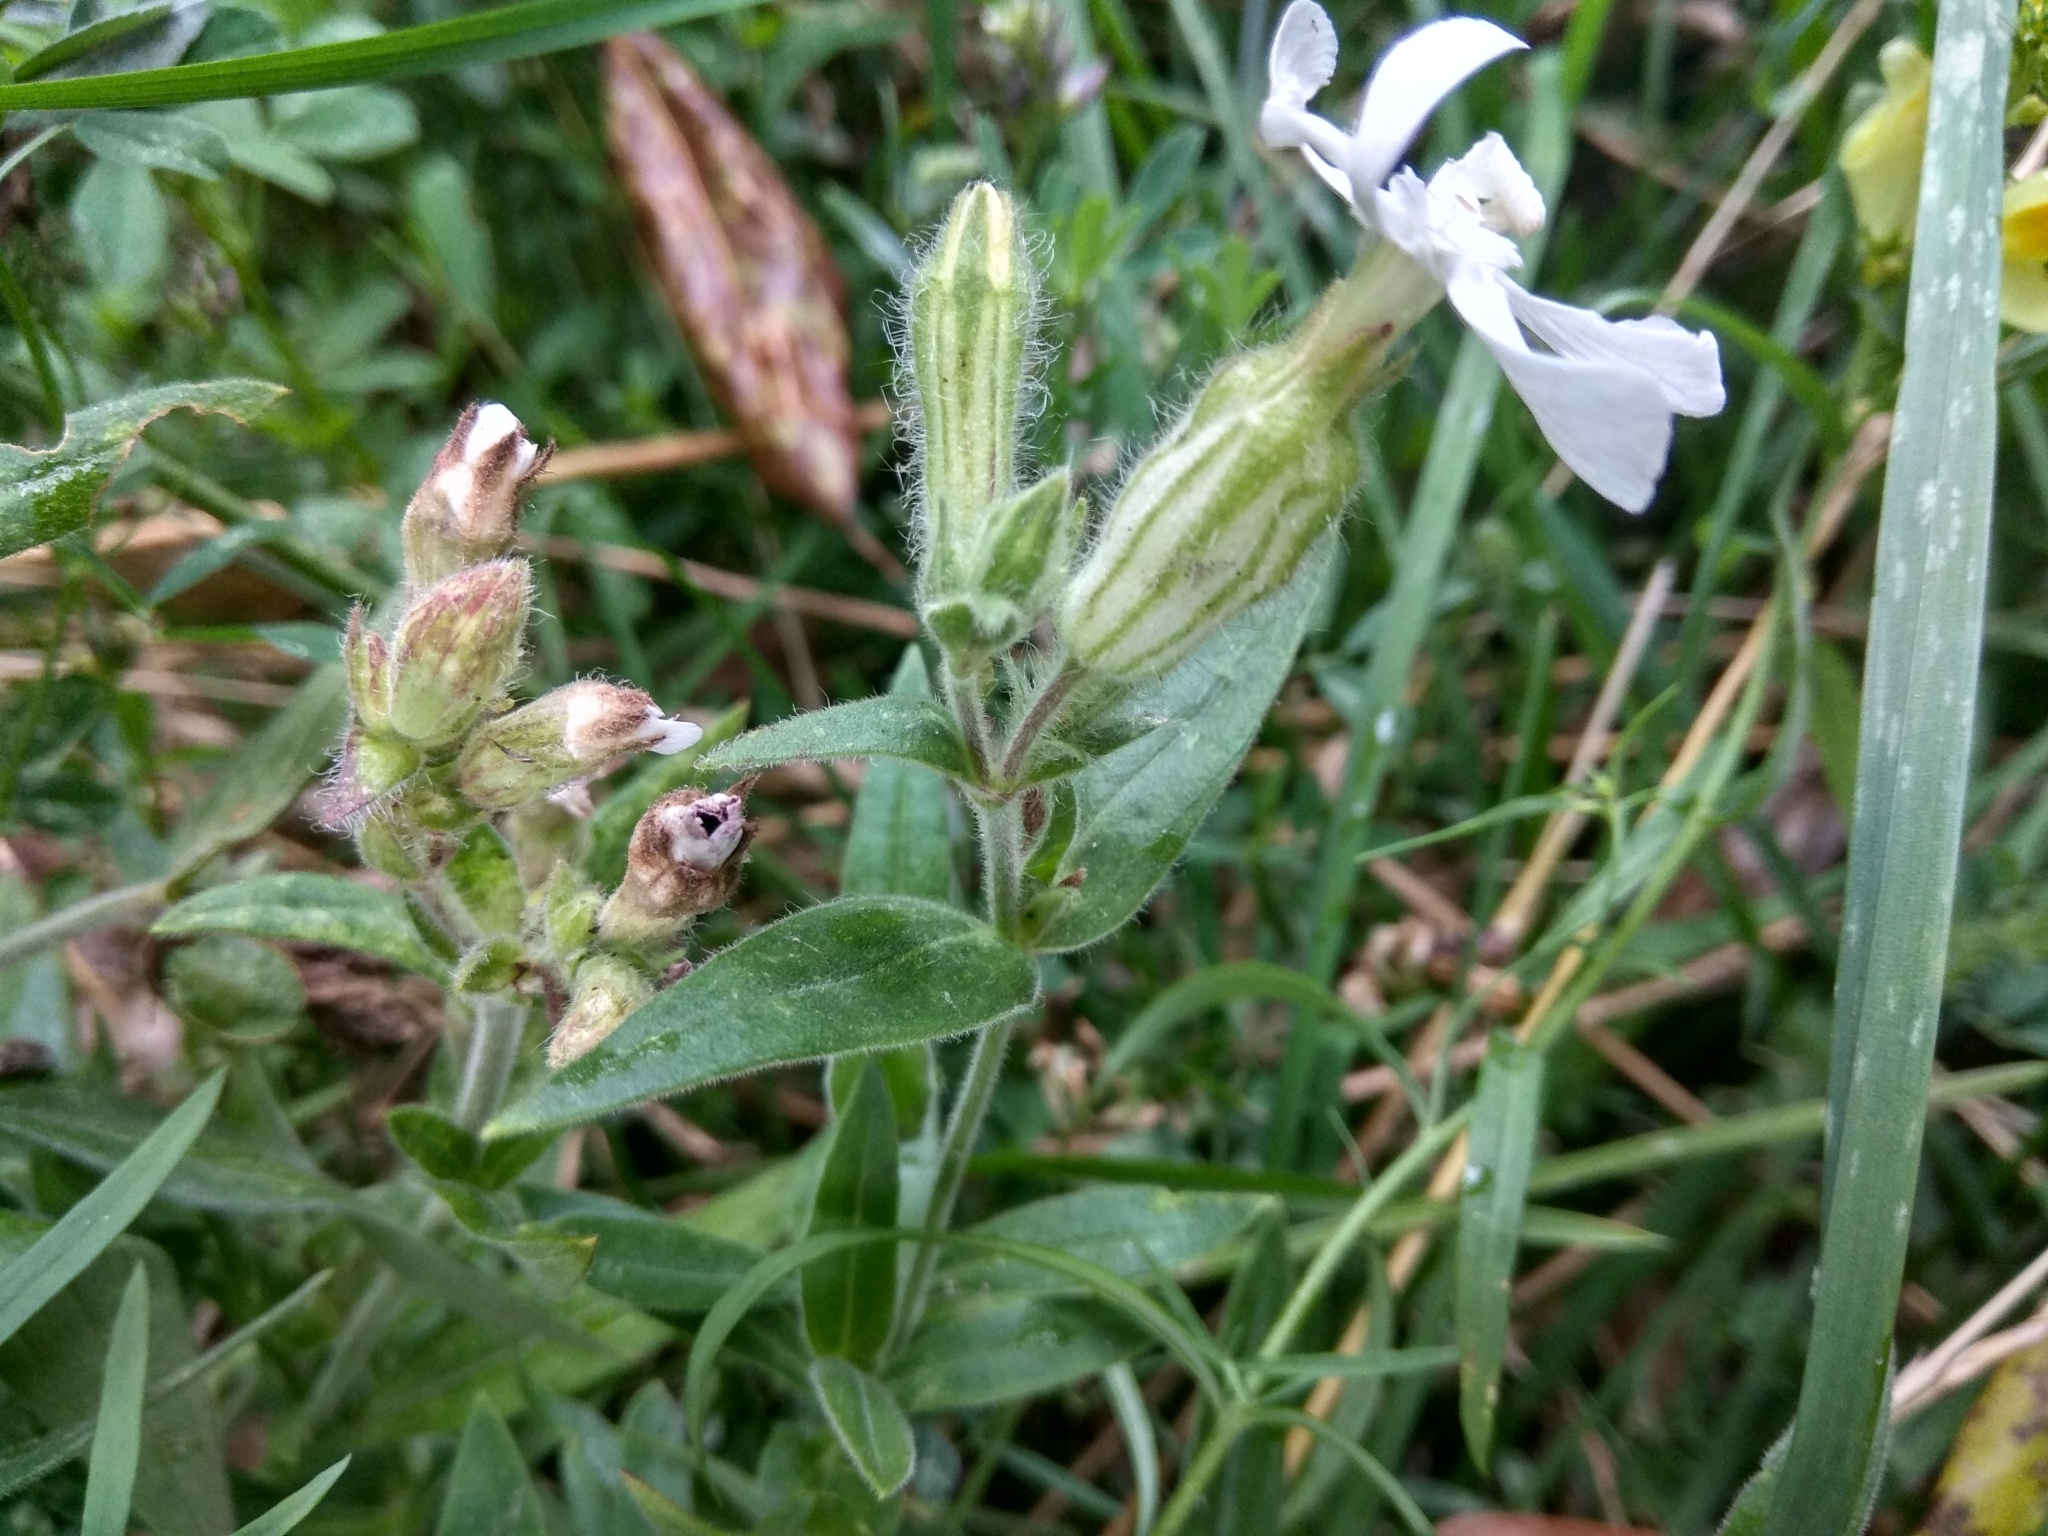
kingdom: Plantae
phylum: Tracheophyta
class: Magnoliopsida
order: Caryophyllales
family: Caryophyllaceae
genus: Silene
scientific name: Silene latifolia
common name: White campion
